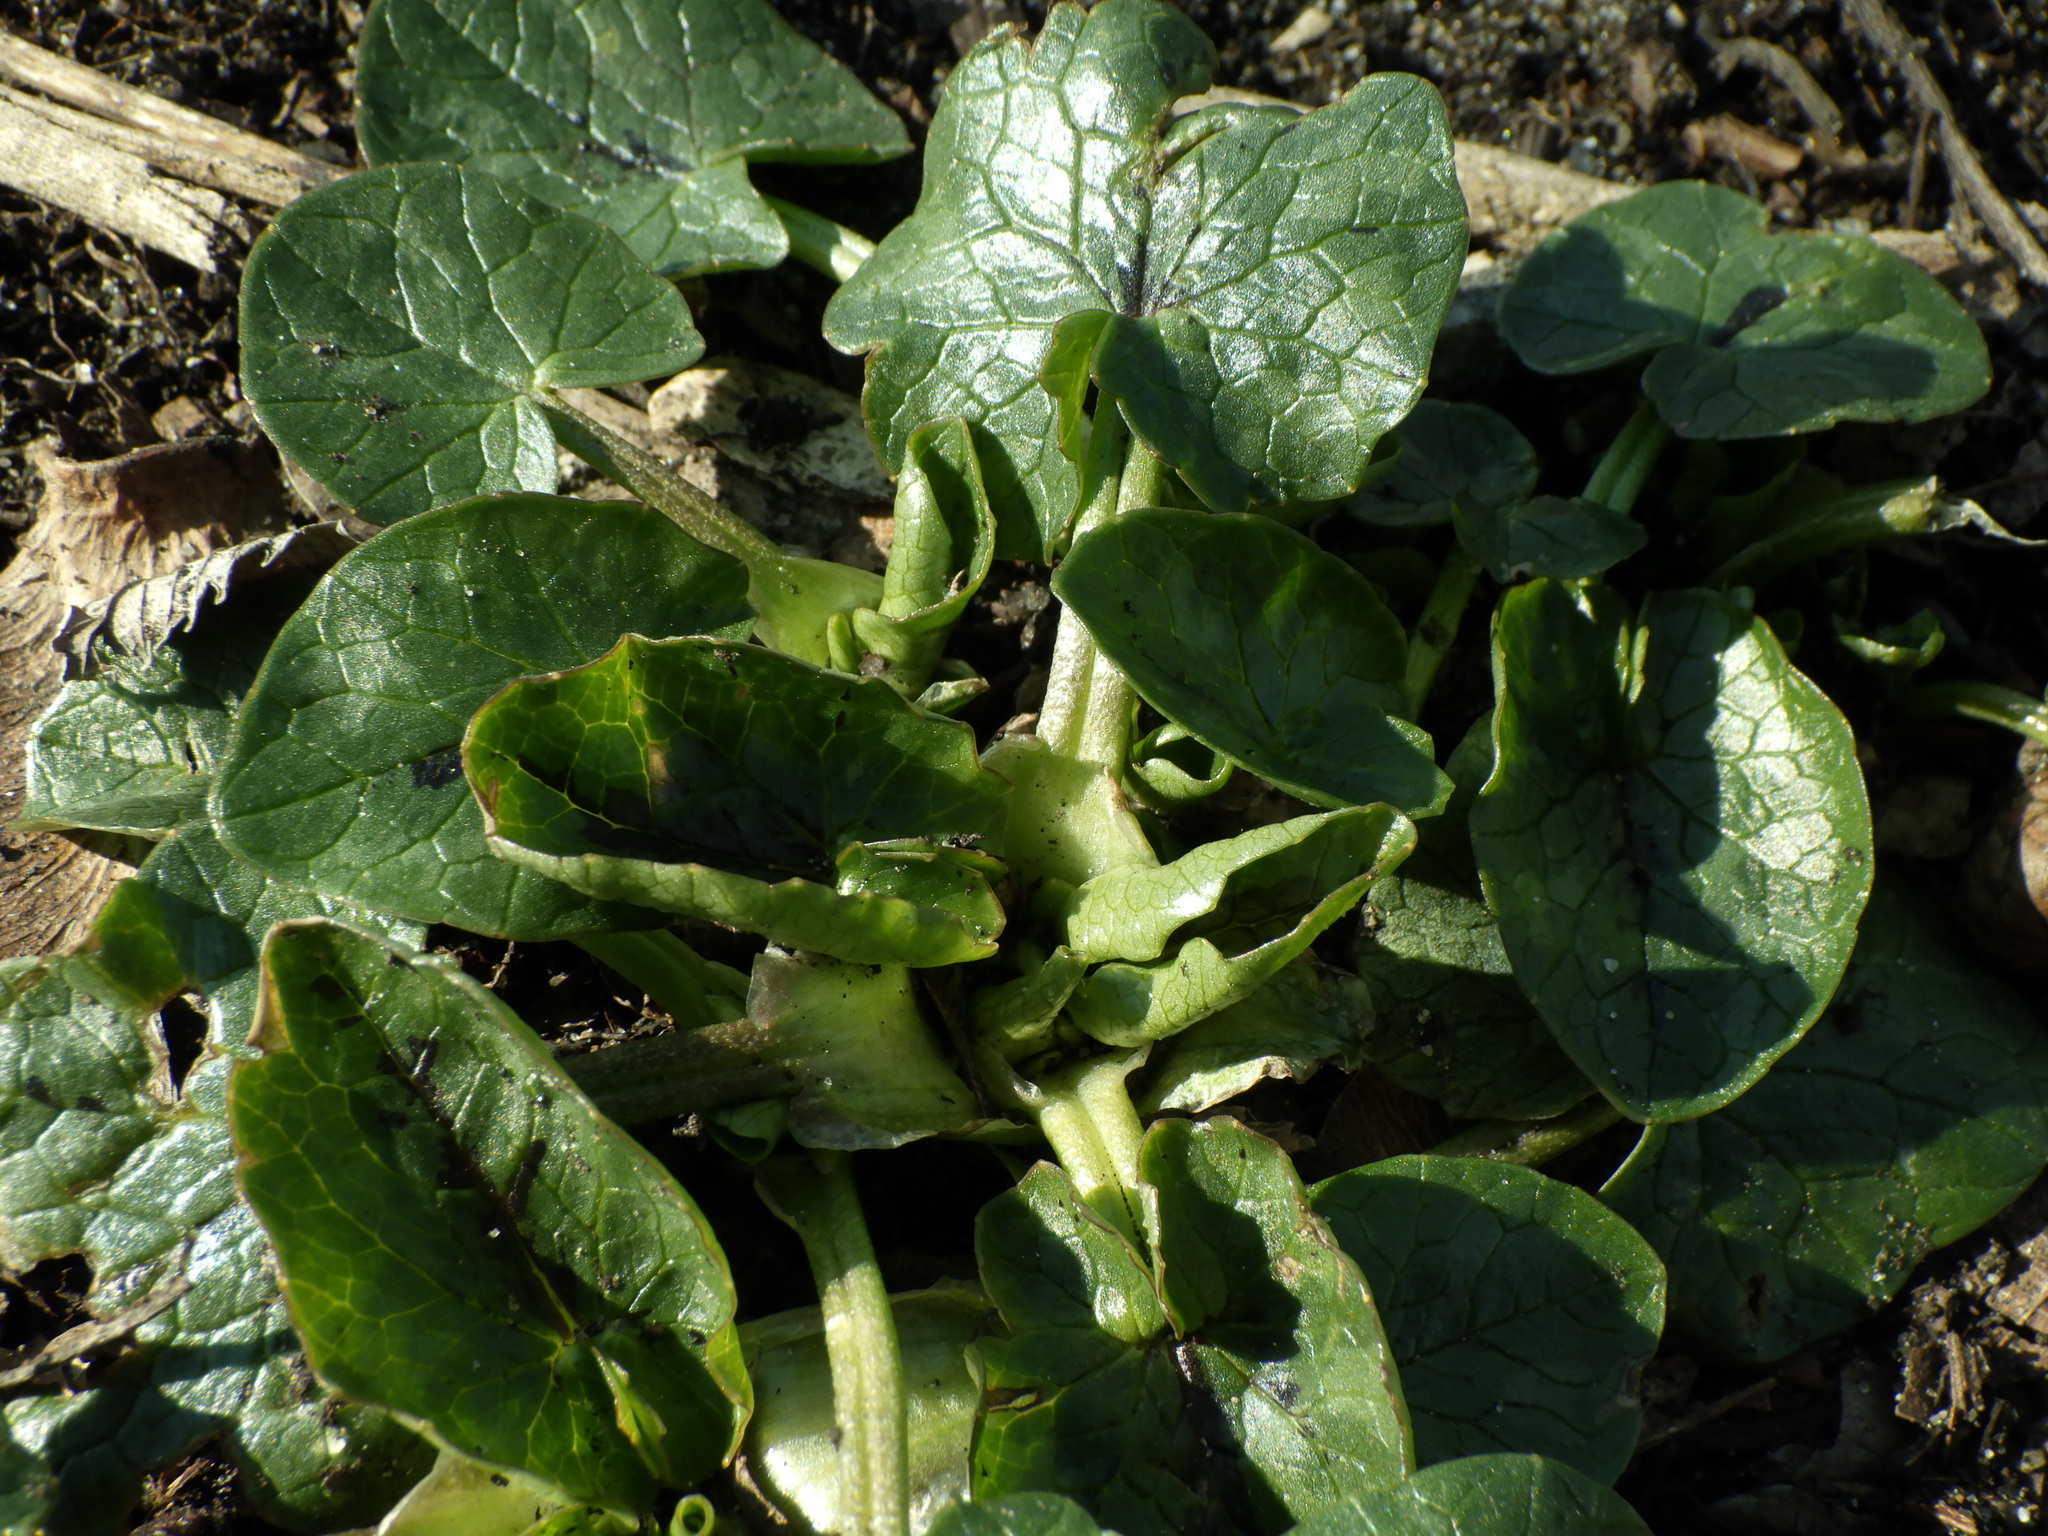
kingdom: Plantae
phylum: Tracheophyta
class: Magnoliopsida
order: Ranunculales
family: Ranunculaceae
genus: Ficaria
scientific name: Ficaria verna
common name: Lesser celandine
